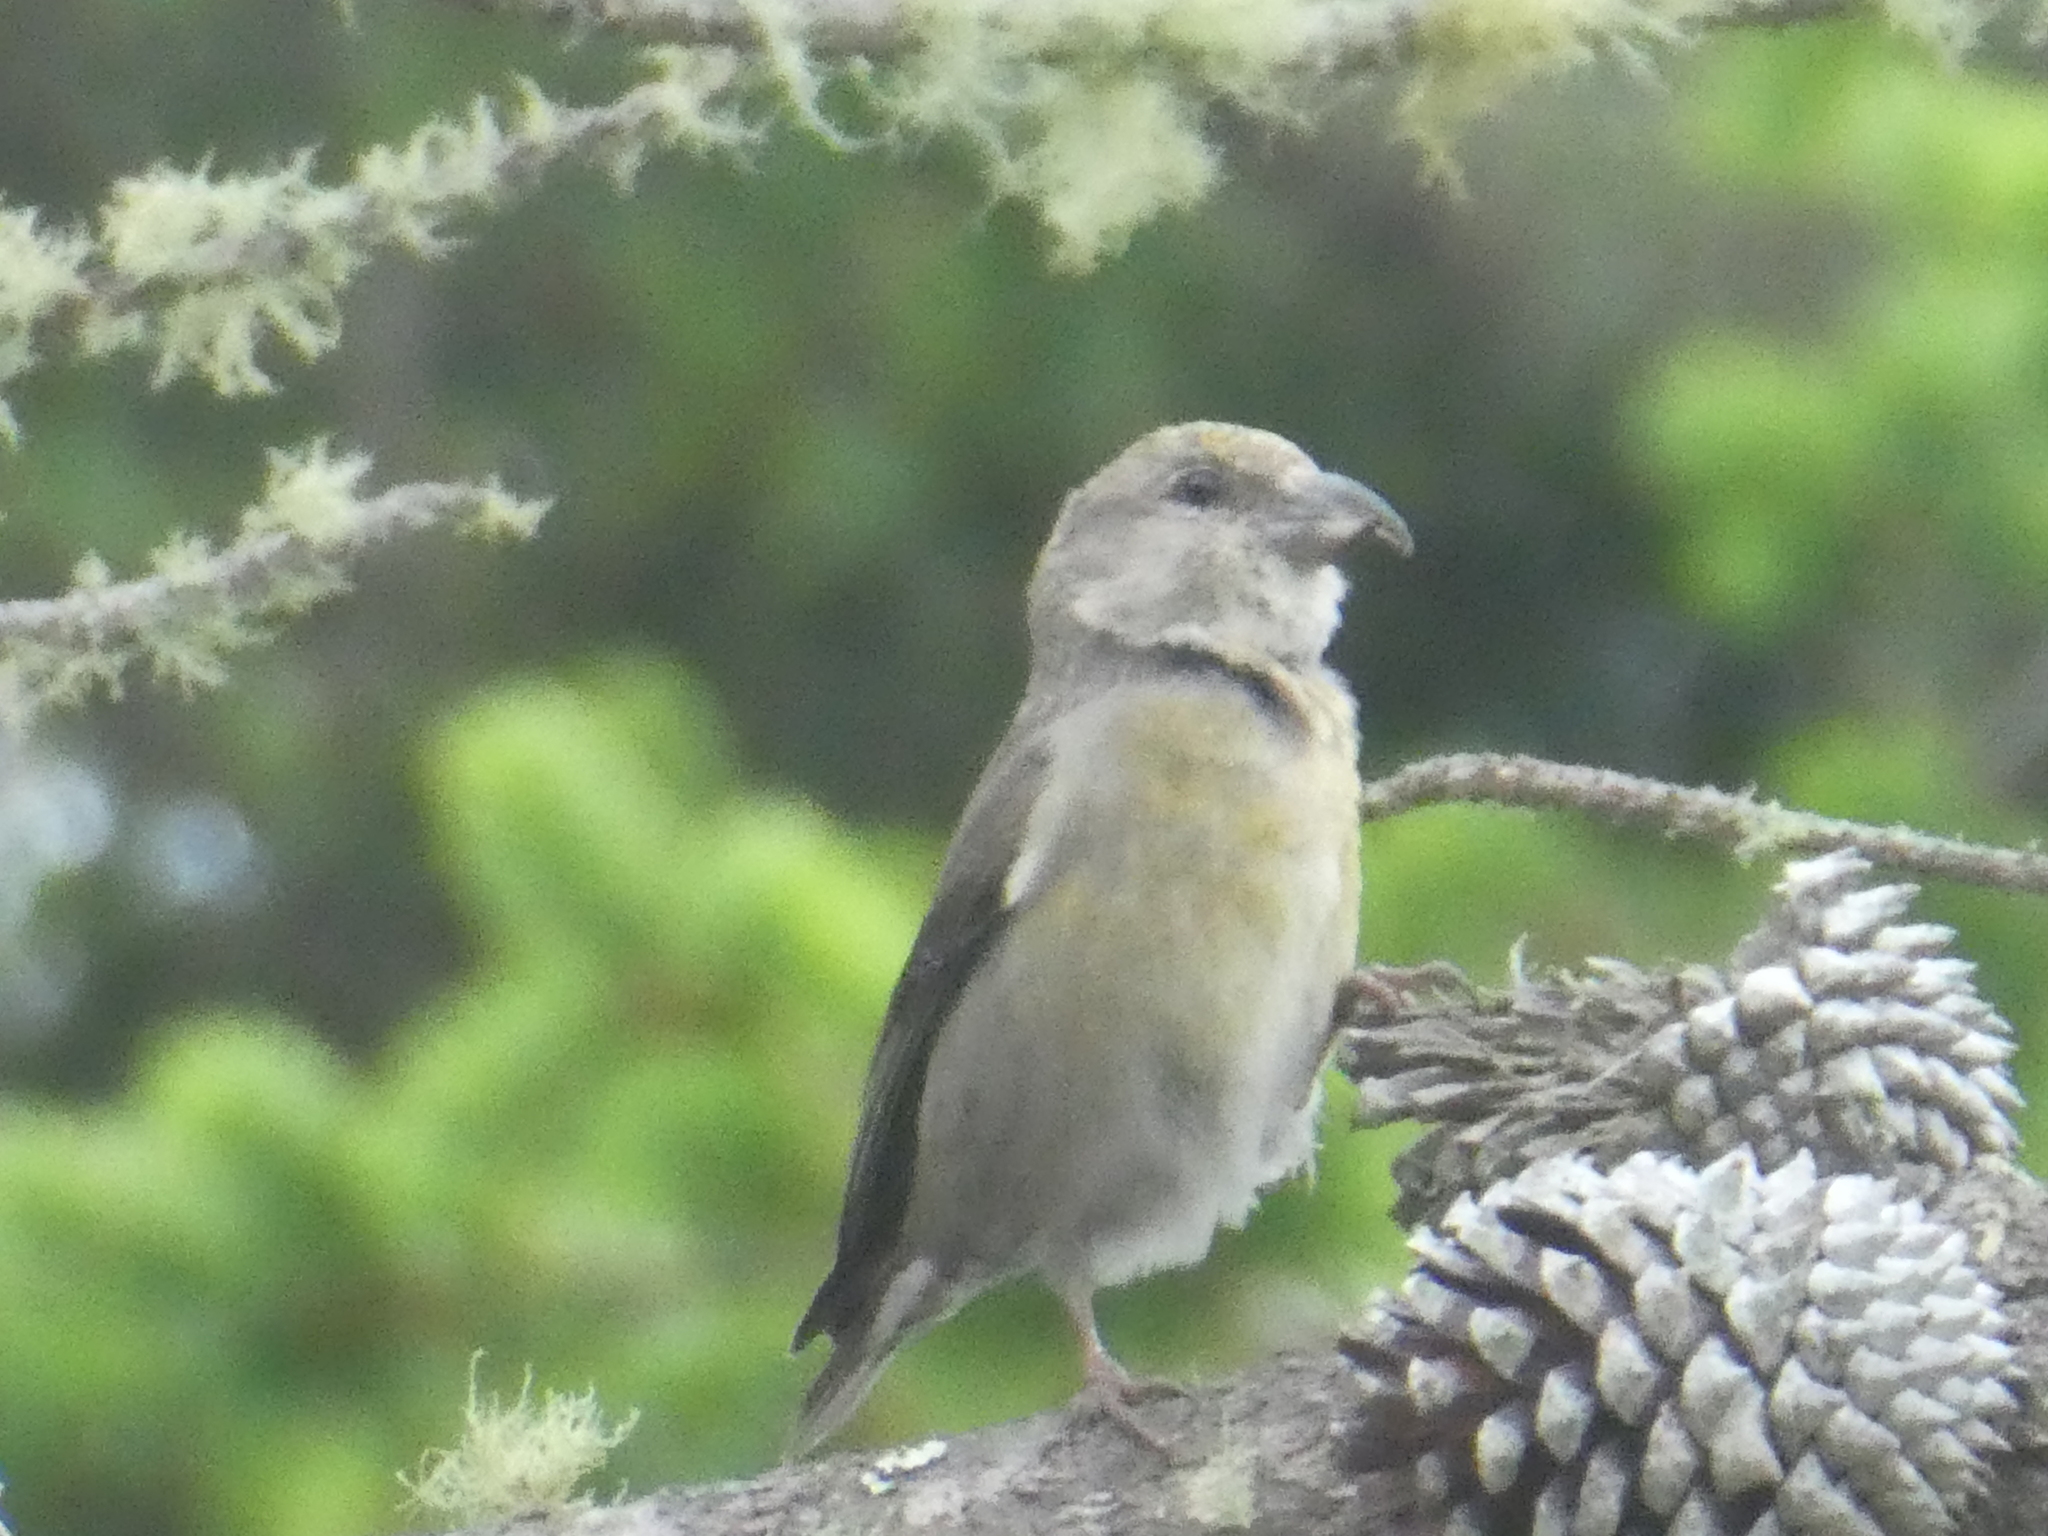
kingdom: Animalia
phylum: Chordata
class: Aves
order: Passeriformes
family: Fringillidae
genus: Loxia
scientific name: Loxia curvirostra
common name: Red crossbill
